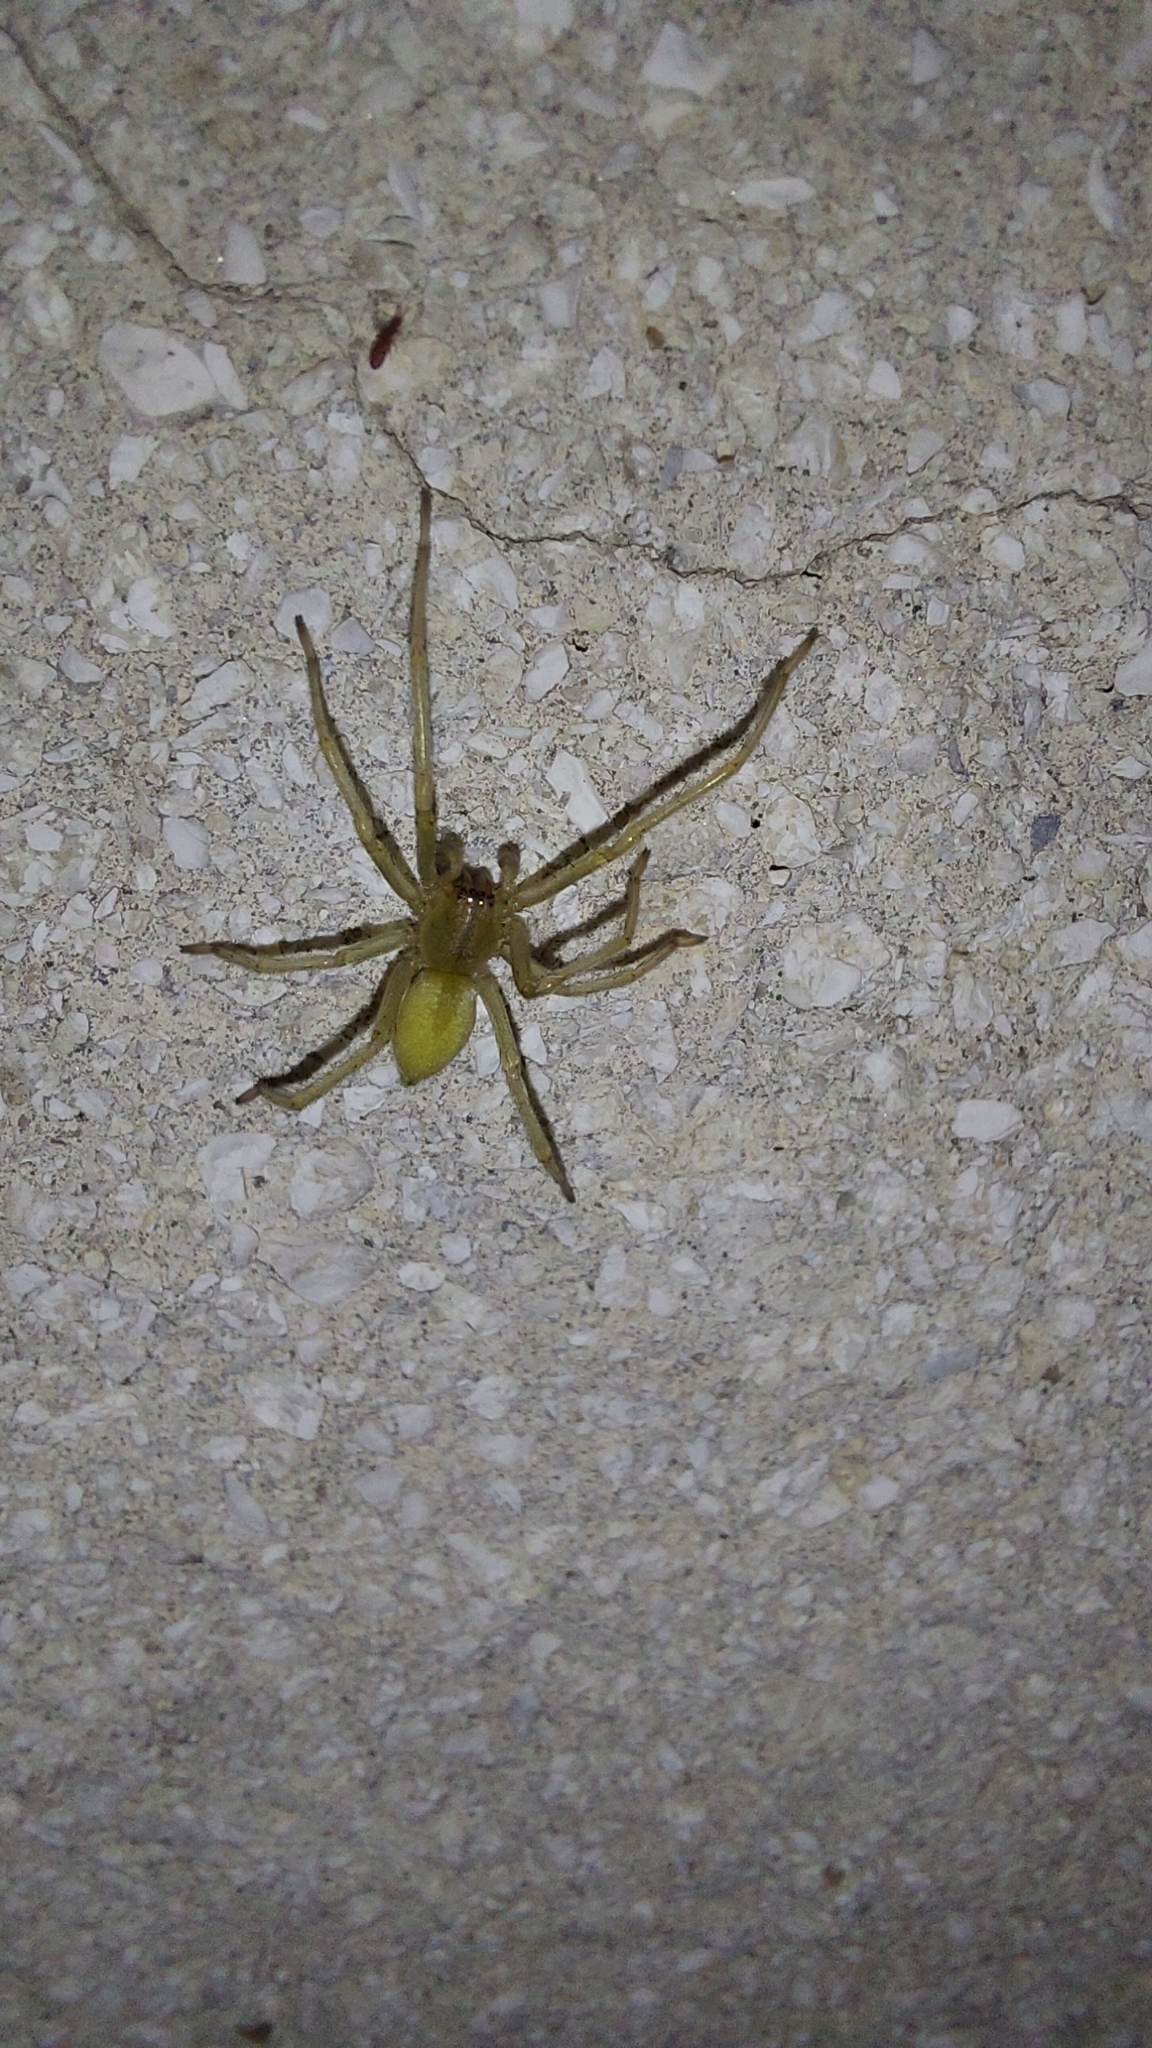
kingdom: Animalia
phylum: Arthropoda
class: Arachnida
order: Araneae
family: Cheiracanthiidae
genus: Cheiracanthium
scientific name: Cheiracanthium mildei
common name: Northern yellow sac spider
